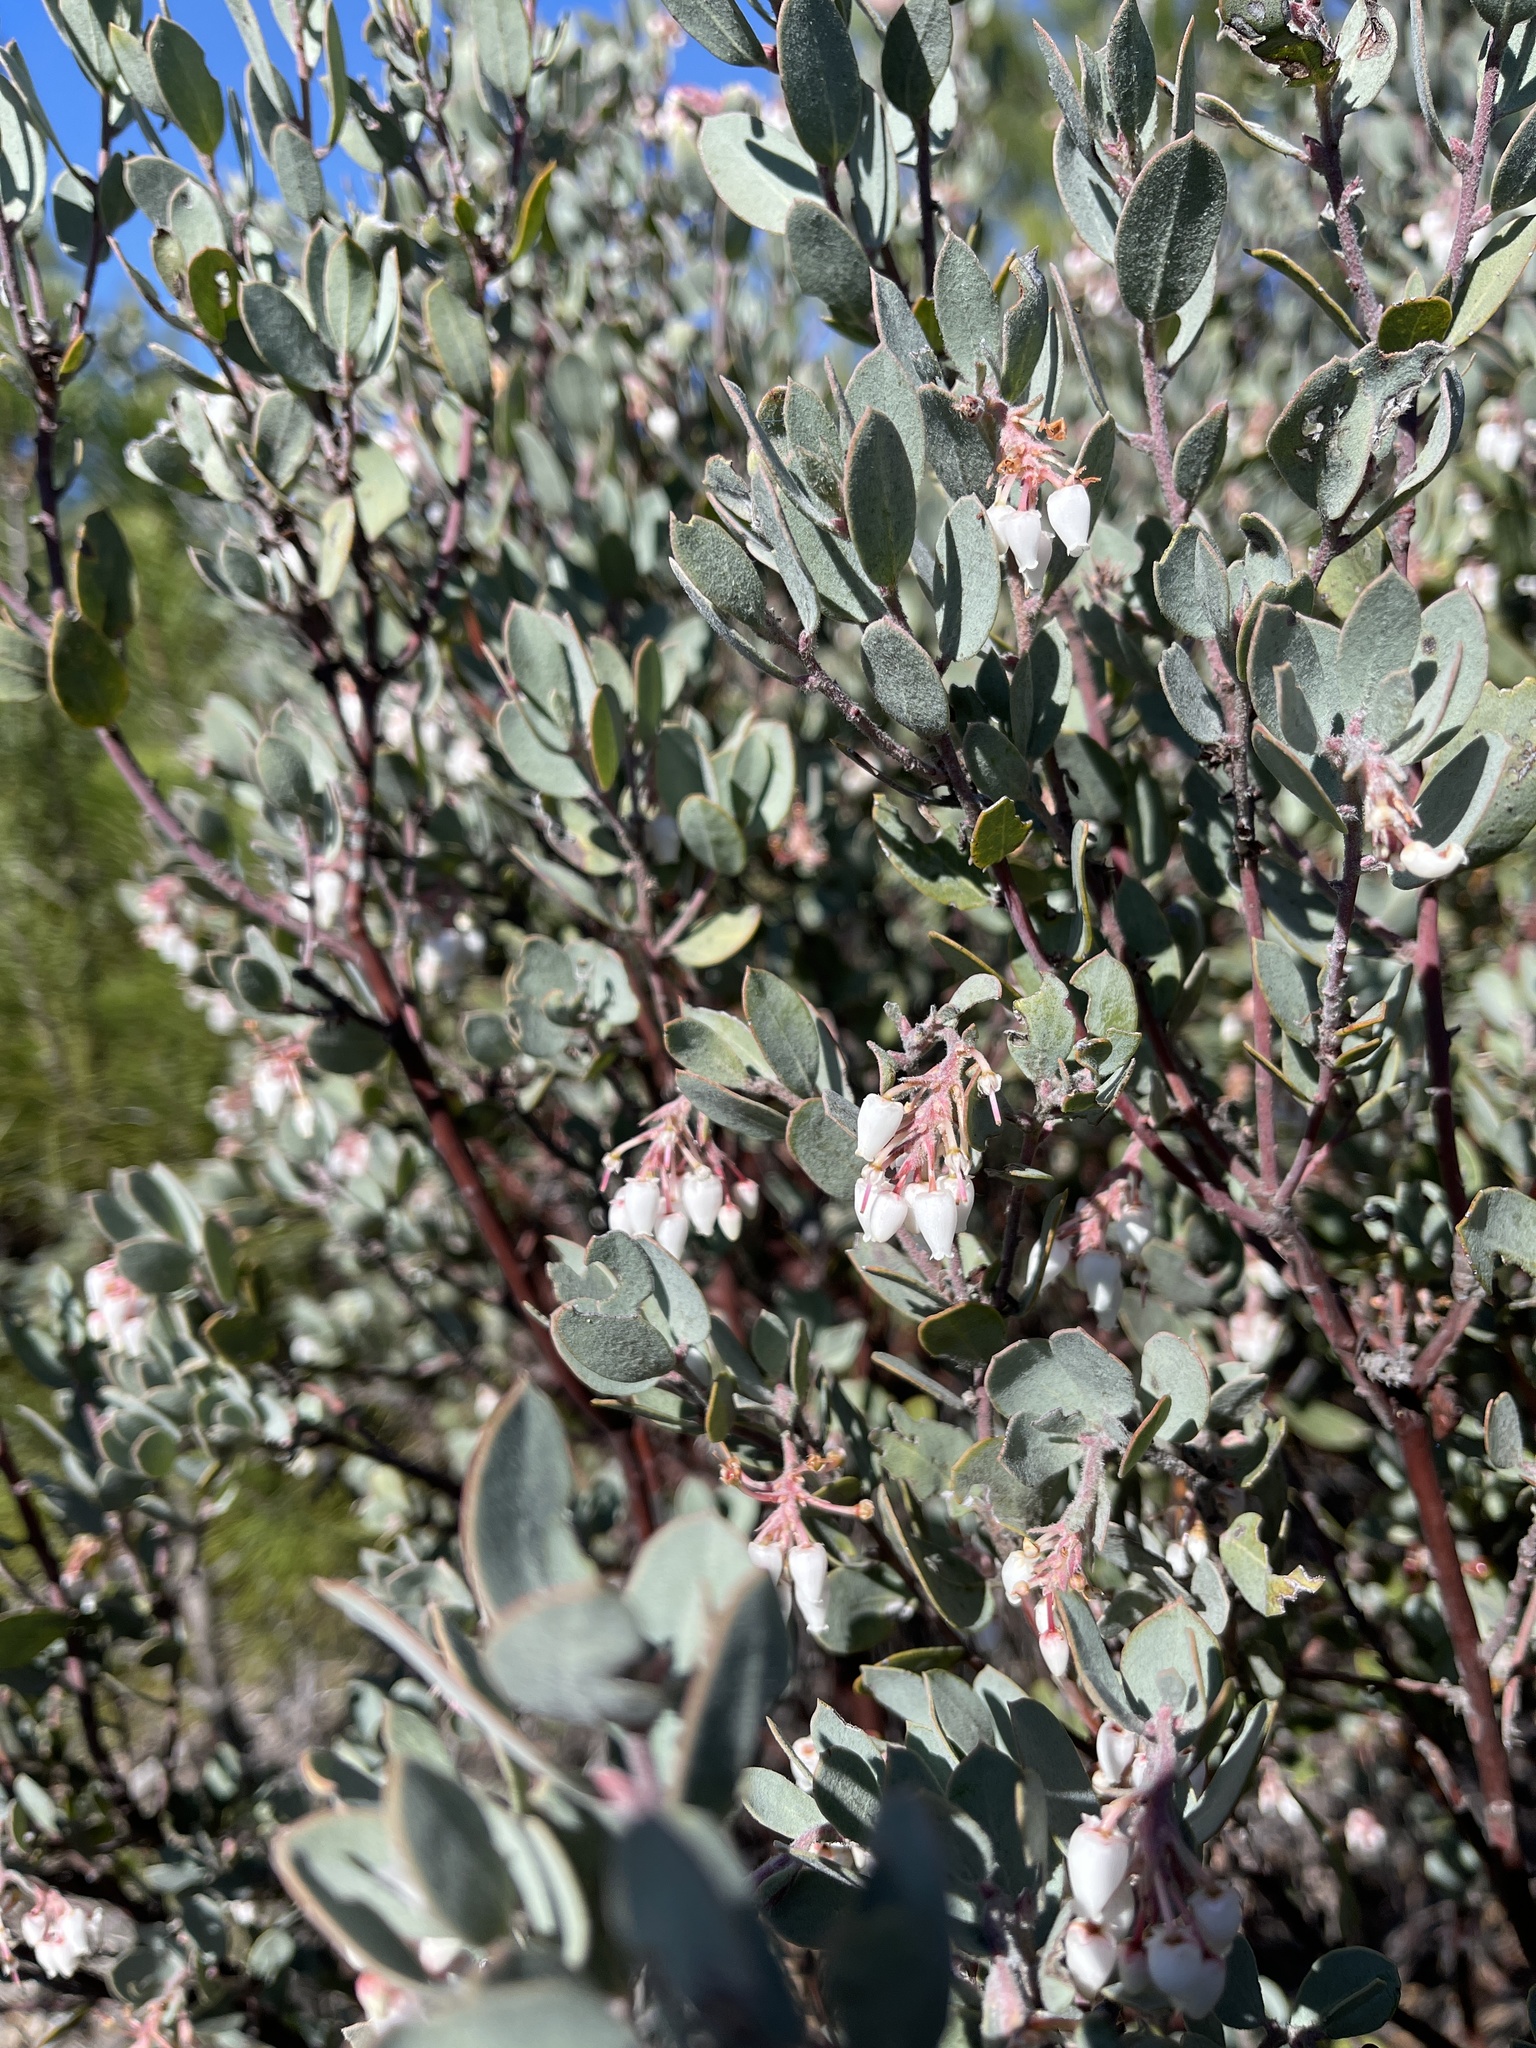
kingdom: Plantae
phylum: Tracheophyta
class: Magnoliopsida
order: Ericales
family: Ericaceae
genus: Arctostaphylos
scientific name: Arctostaphylos silvicola
